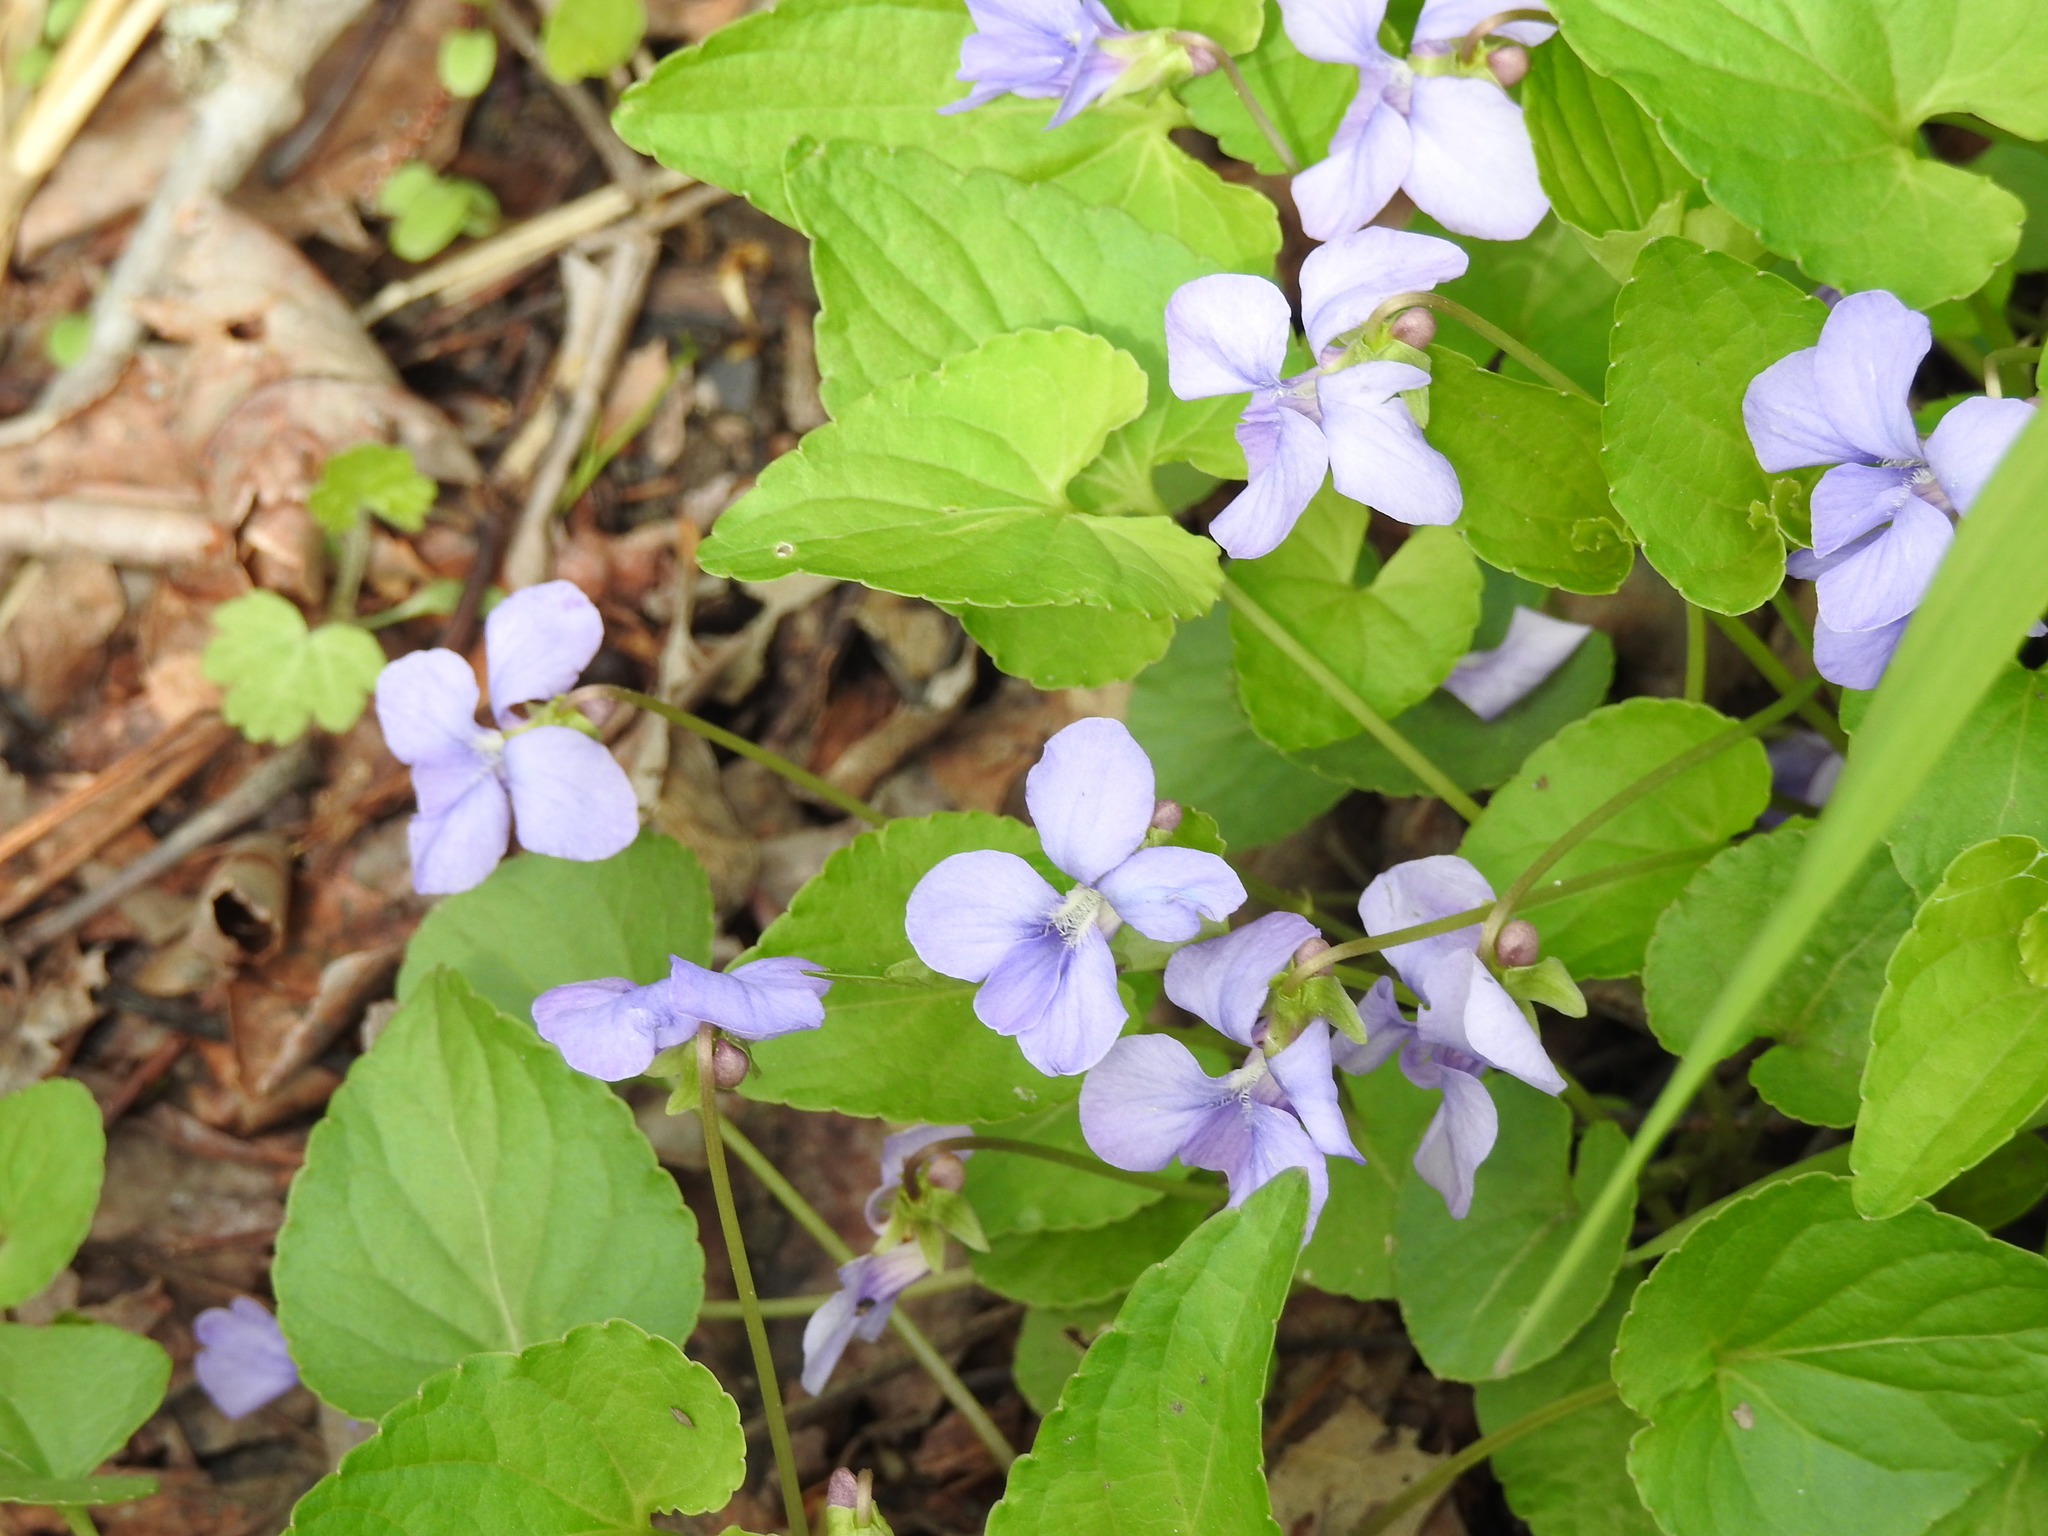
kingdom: Plantae
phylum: Tracheophyta
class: Magnoliopsida
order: Malpighiales
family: Violaceae
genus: Viola
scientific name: Viola sororia
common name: Dooryard violet
